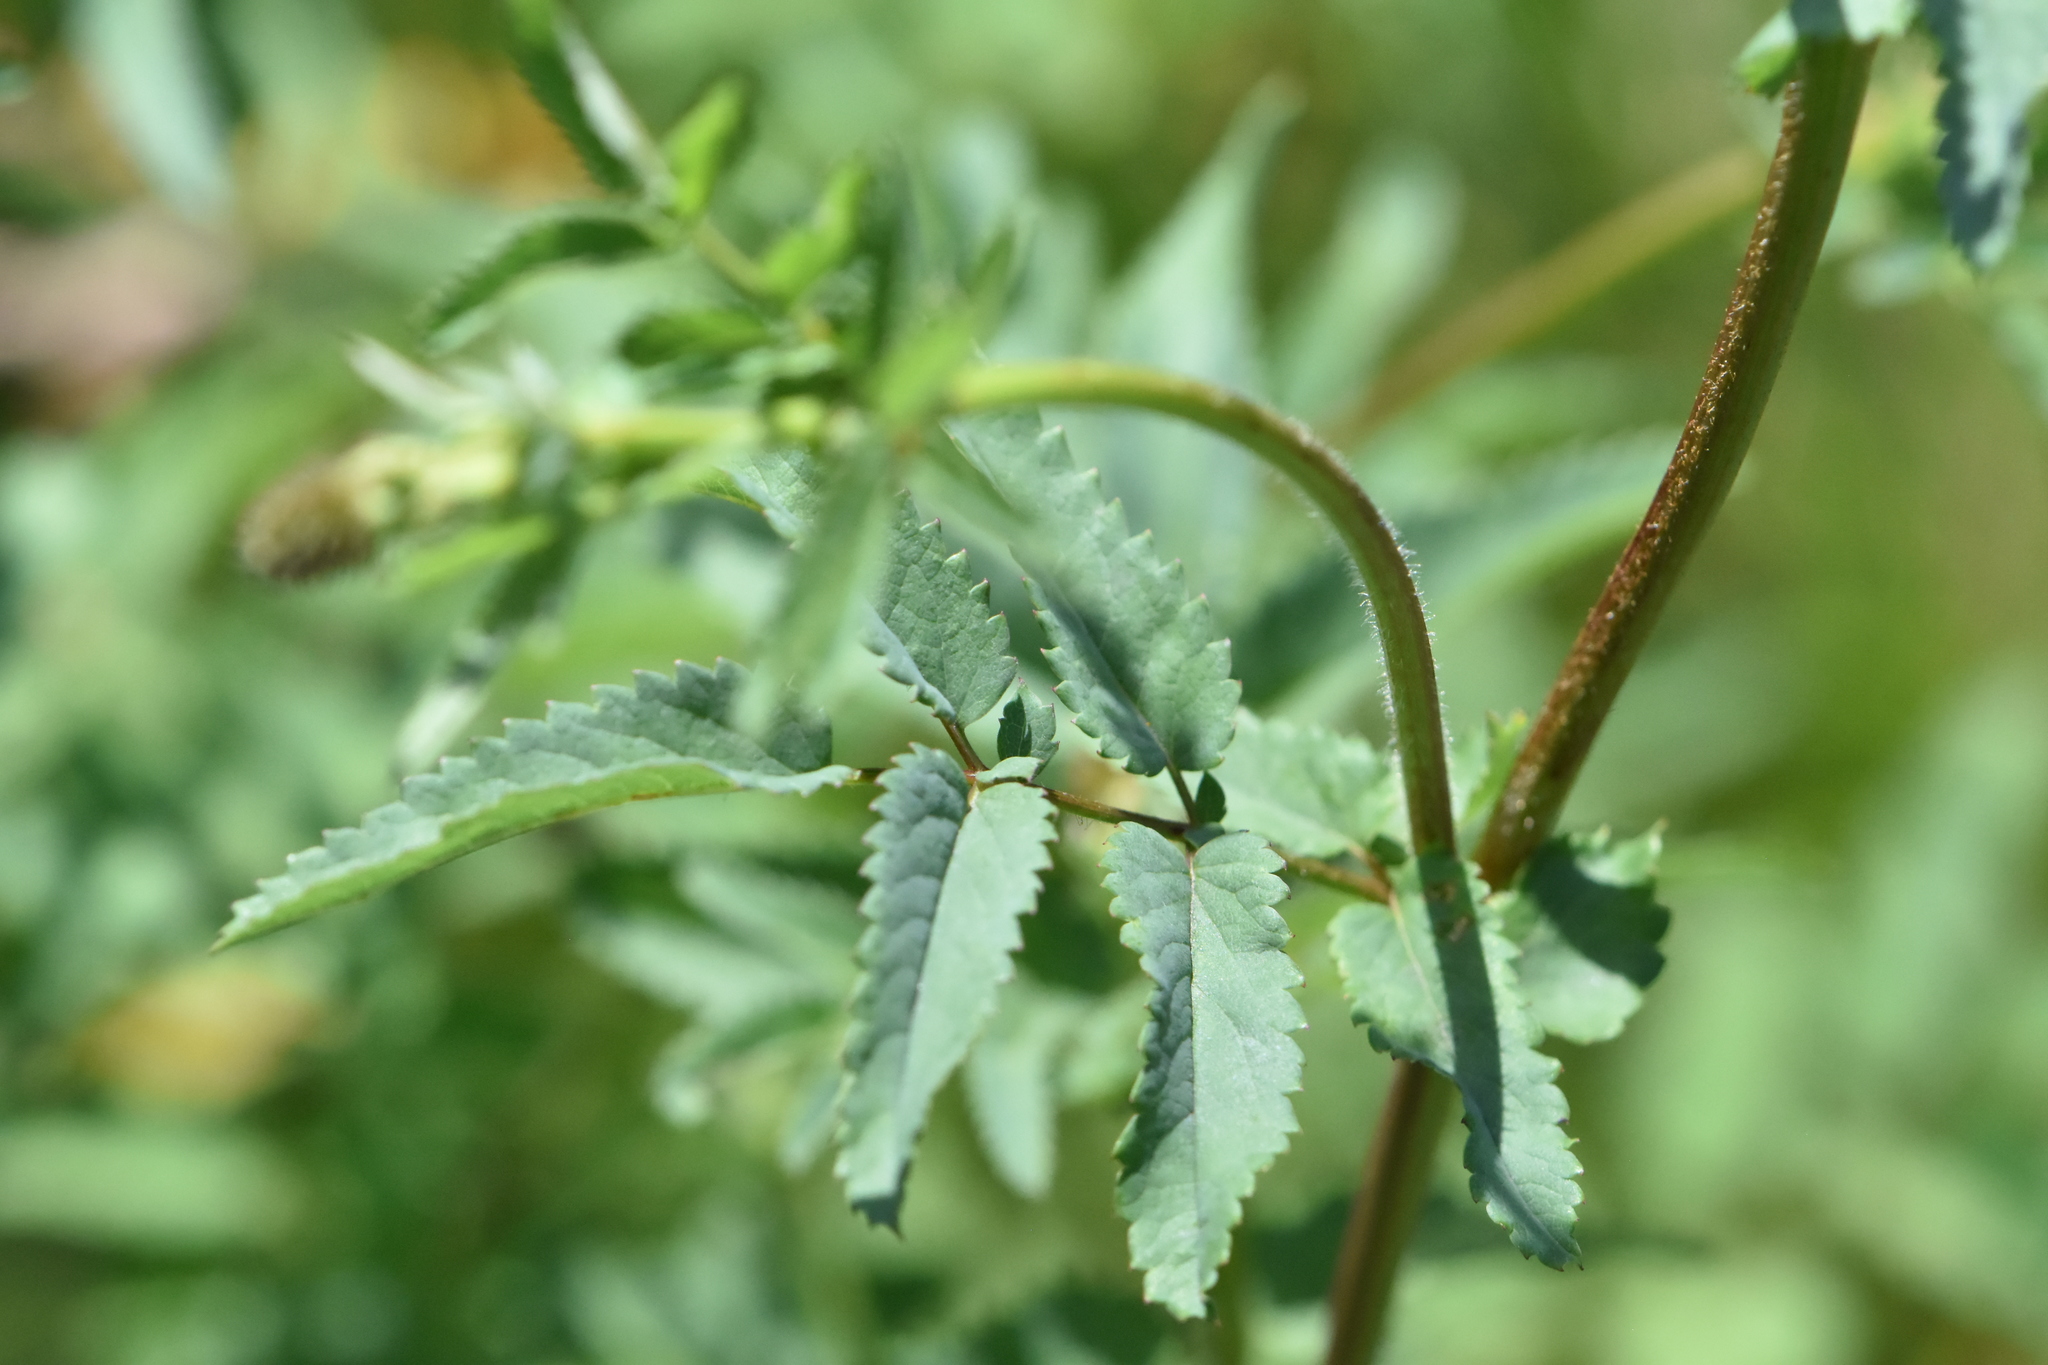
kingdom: Plantae
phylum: Tracheophyta
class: Magnoliopsida
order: Rosales
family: Rosaceae
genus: Sanguisorba
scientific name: Sanguisorba officinalis
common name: Great burnet
